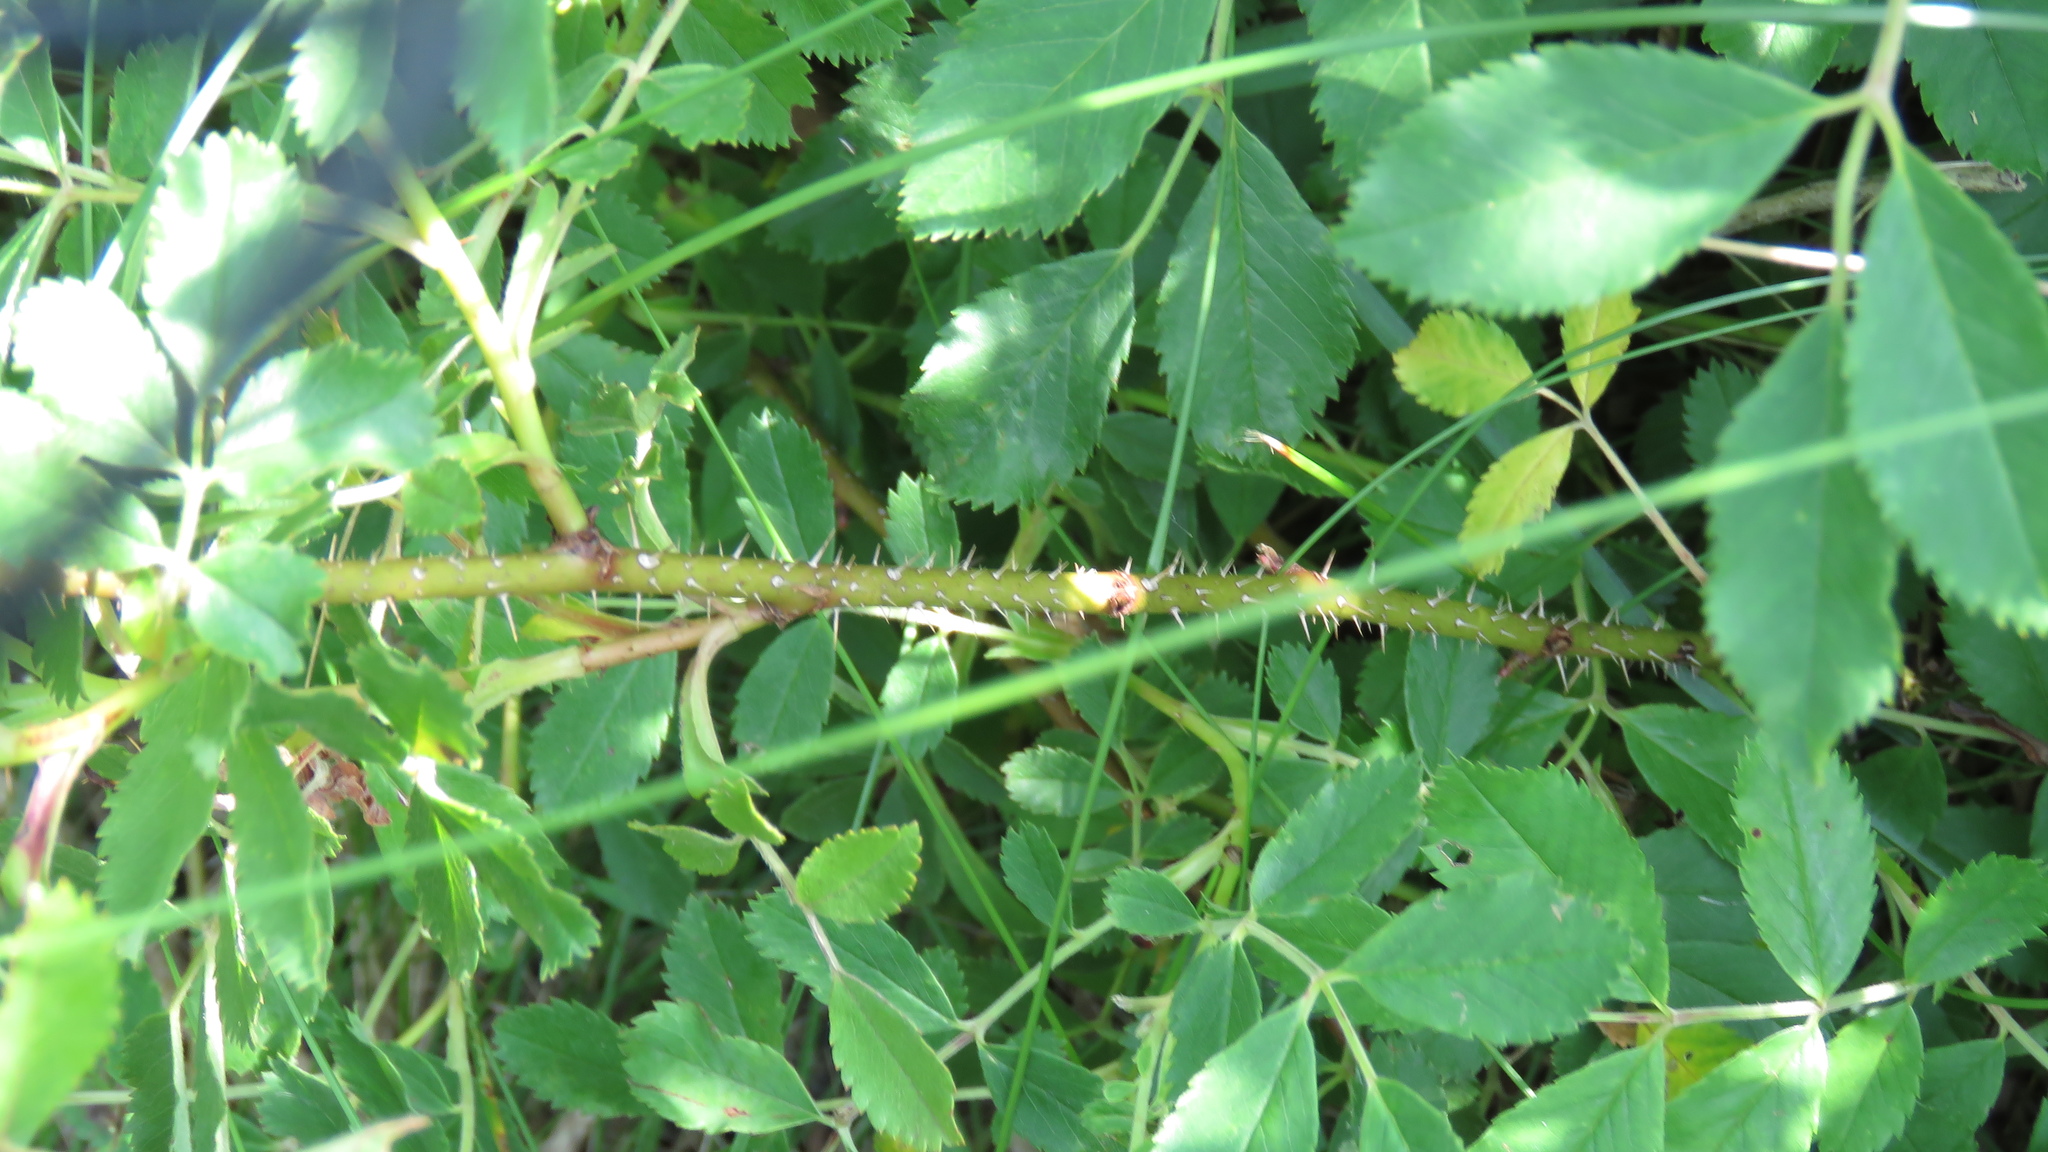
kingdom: Plantae
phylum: Tracheophyta
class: Magnoliopsida
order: Rosales
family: Rosaceae
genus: Rosa
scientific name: Rosa carolina
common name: Pasture rose
